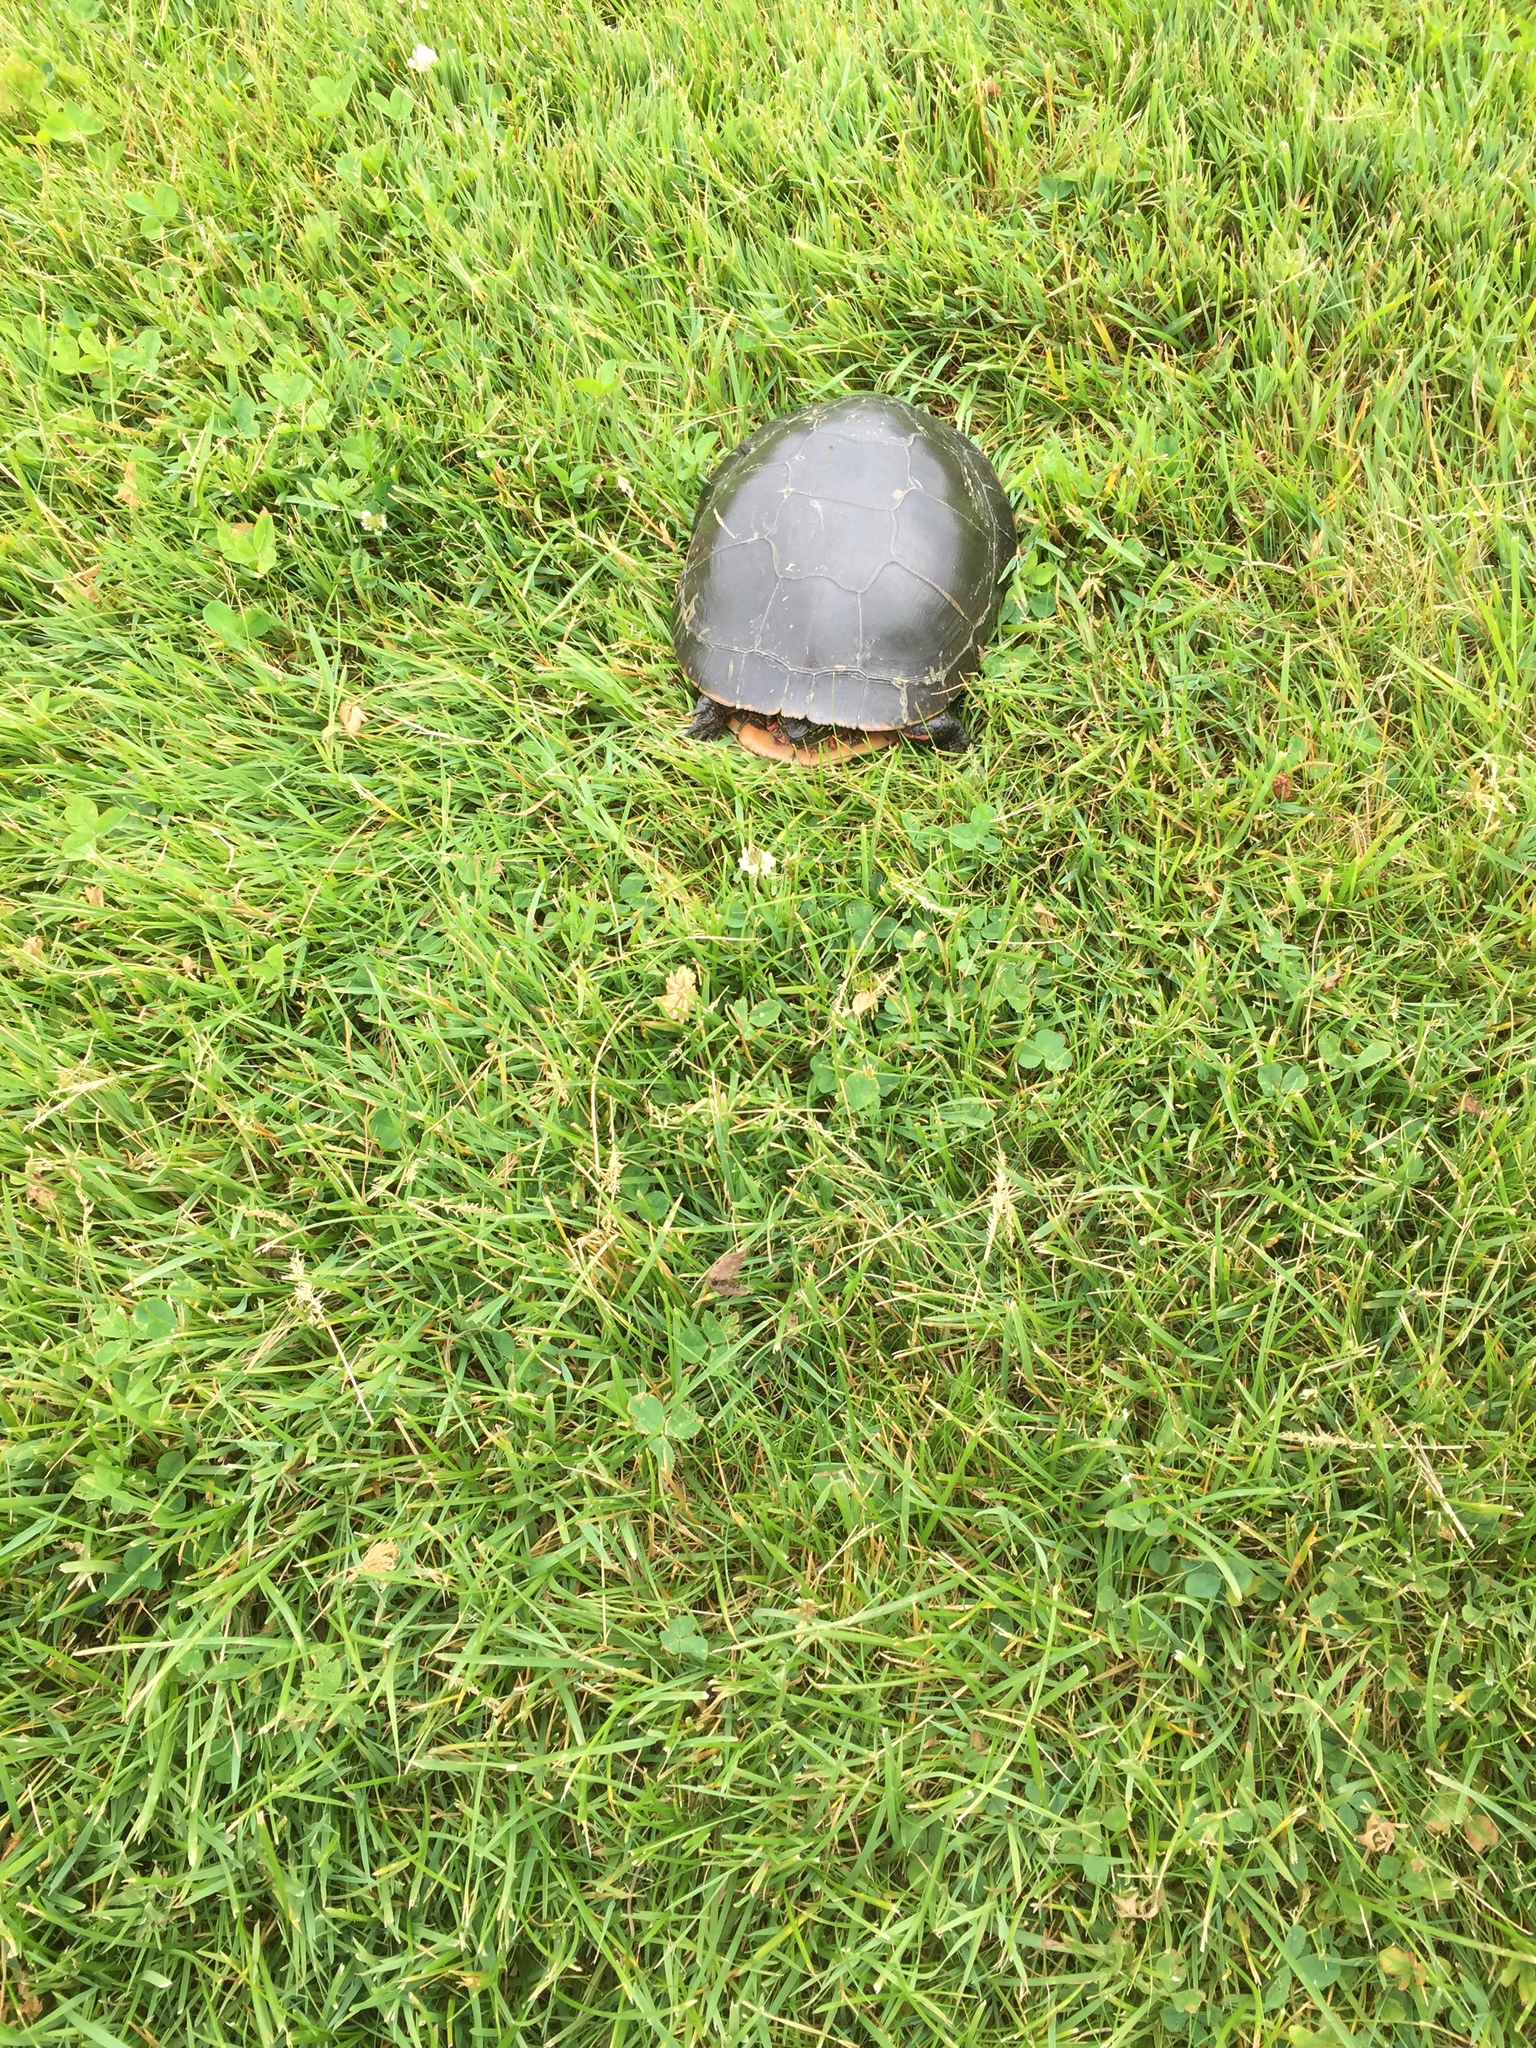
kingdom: Animalia
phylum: Chordata
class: Testudines
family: Emydidae
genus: Chrysemys
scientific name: Chrysemys picta
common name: Painted turtle
